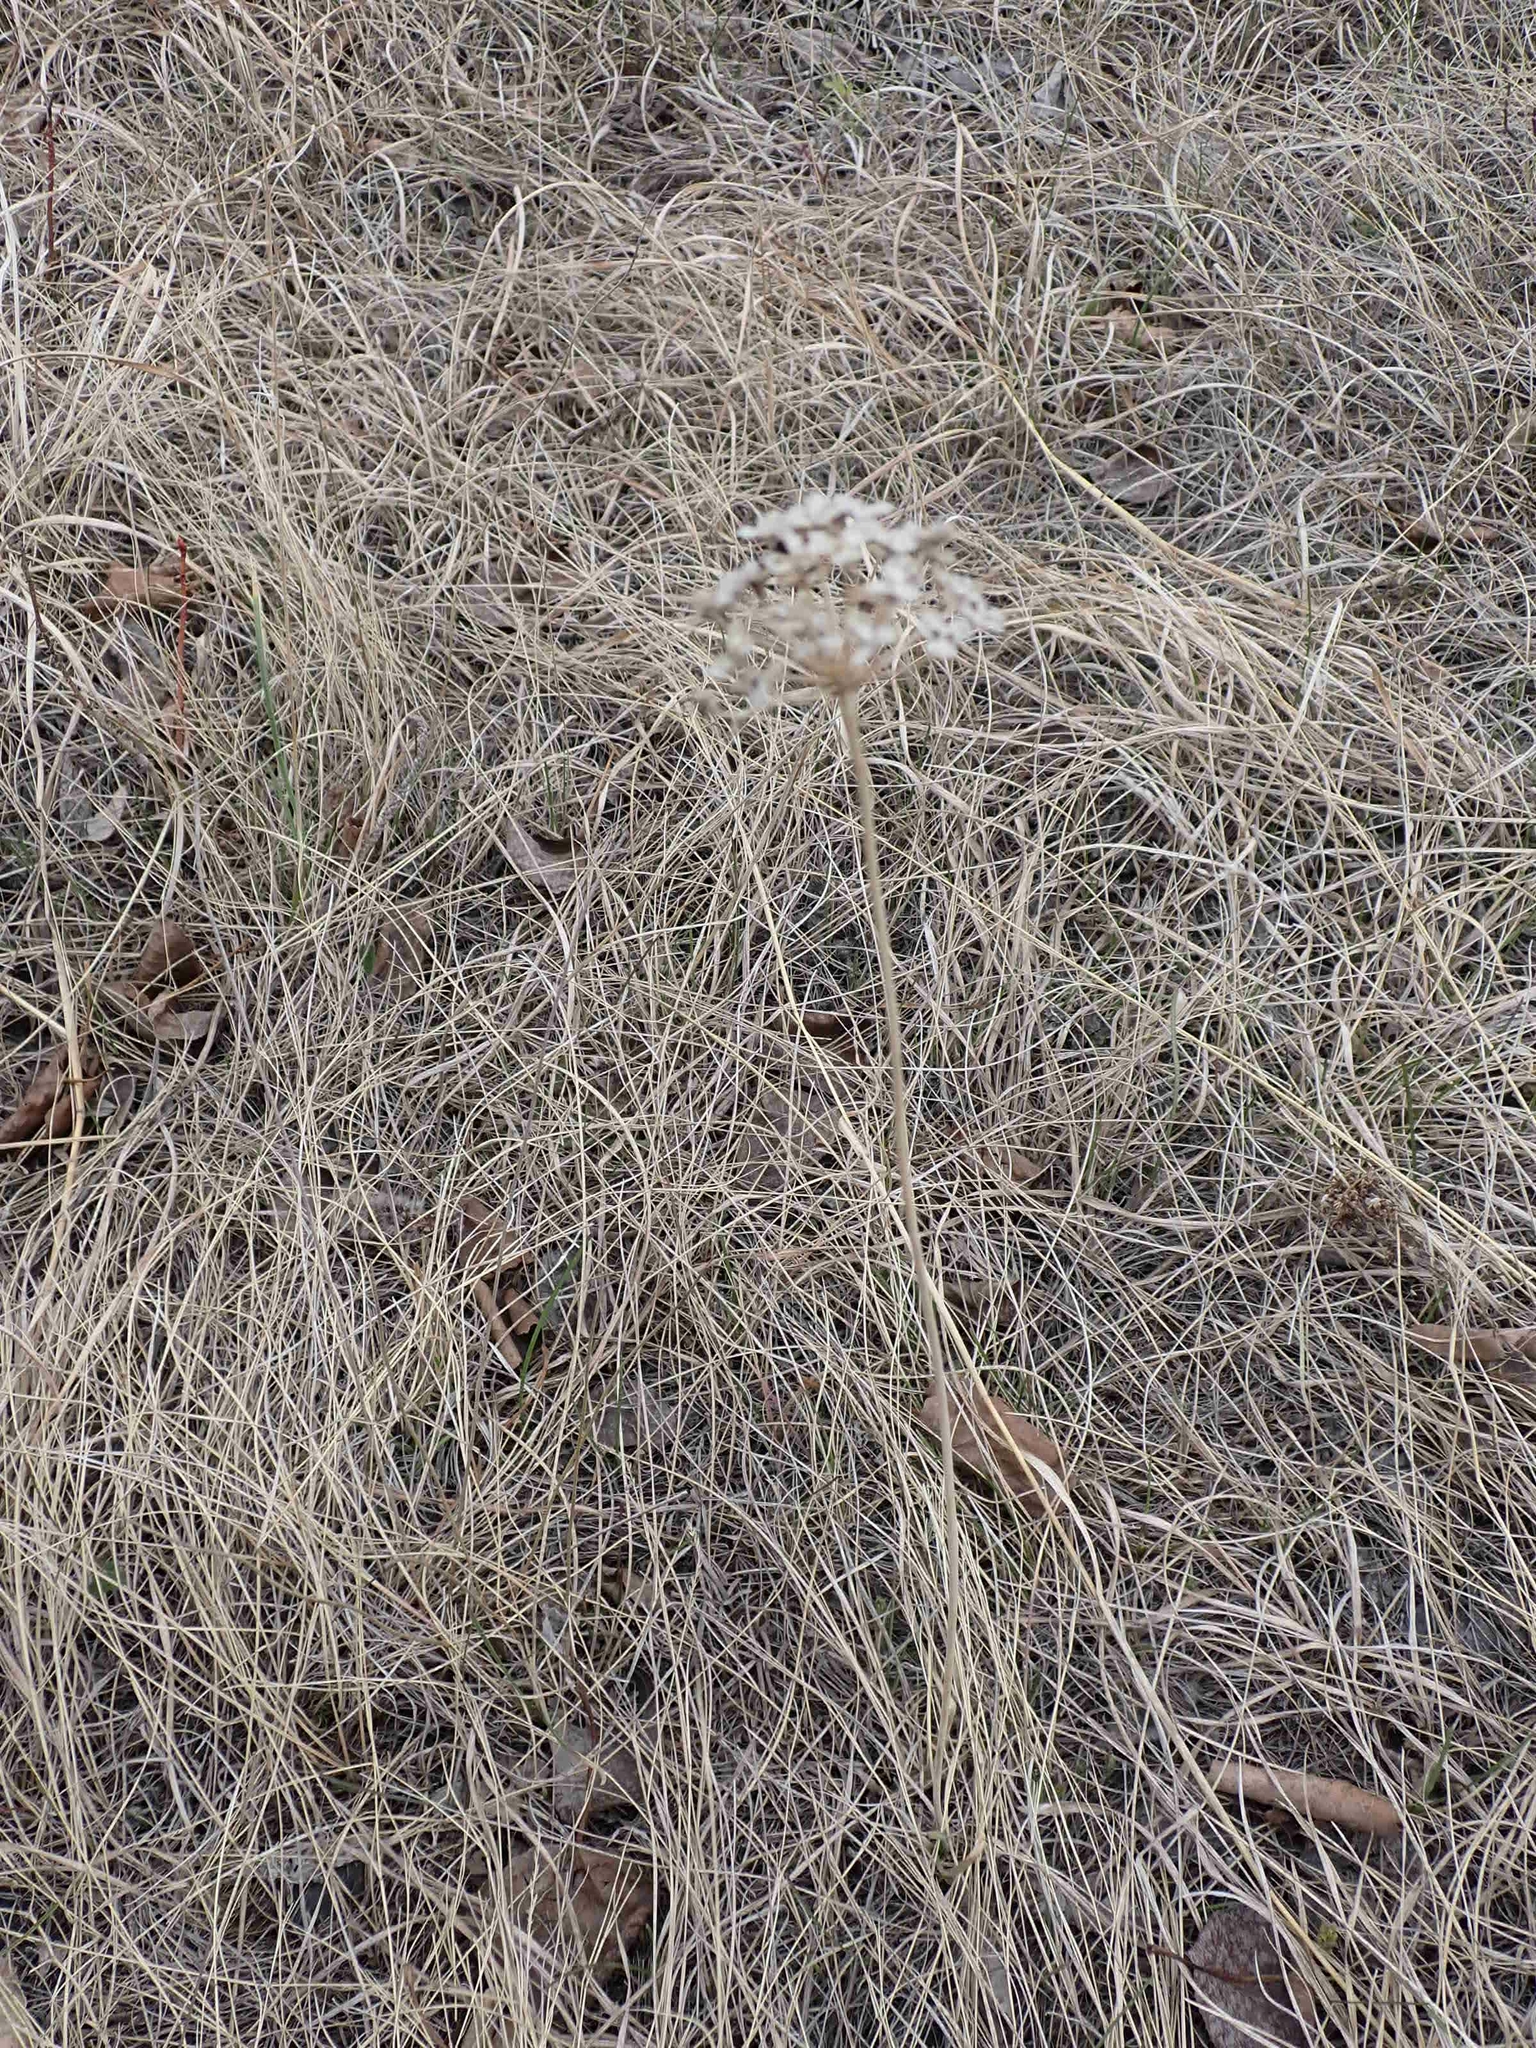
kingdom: Plantae
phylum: Tracheophyta
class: Liliopsida
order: Asparagales
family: Amaryllidaceae
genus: Allium
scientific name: Allium stellatum
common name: Autumn onion
